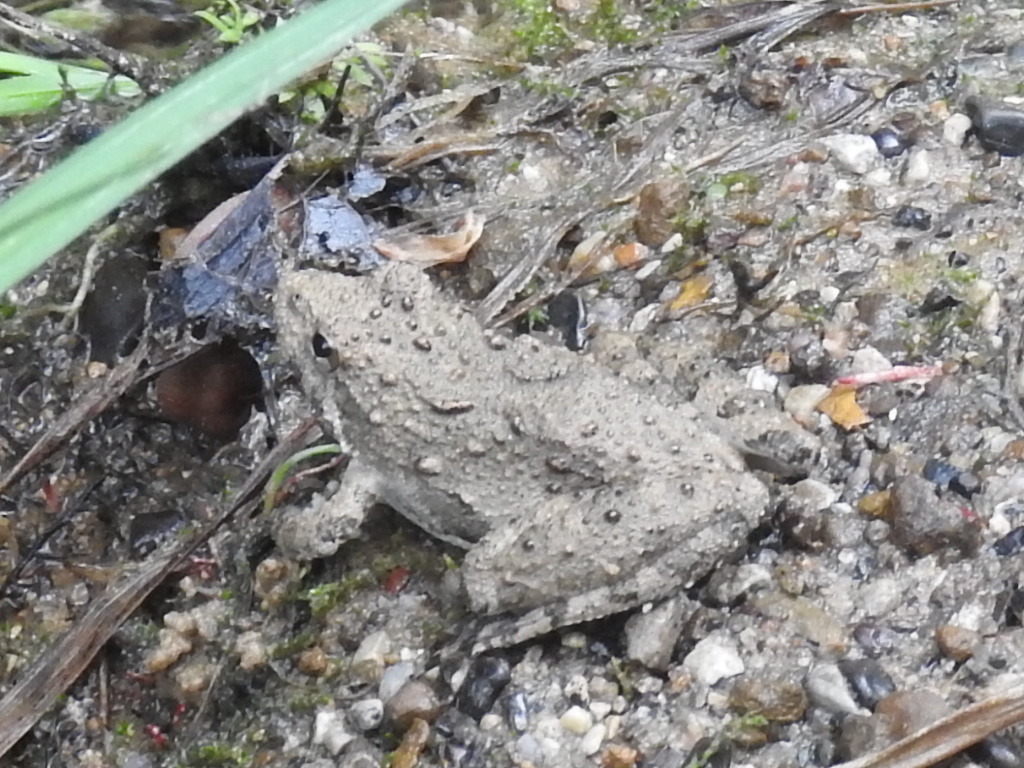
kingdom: Animalia
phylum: Chordata
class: Amphibia
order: Anura
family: Hylidae
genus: Acris
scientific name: Acris blanchardi
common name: Blanchard's cricket frog
